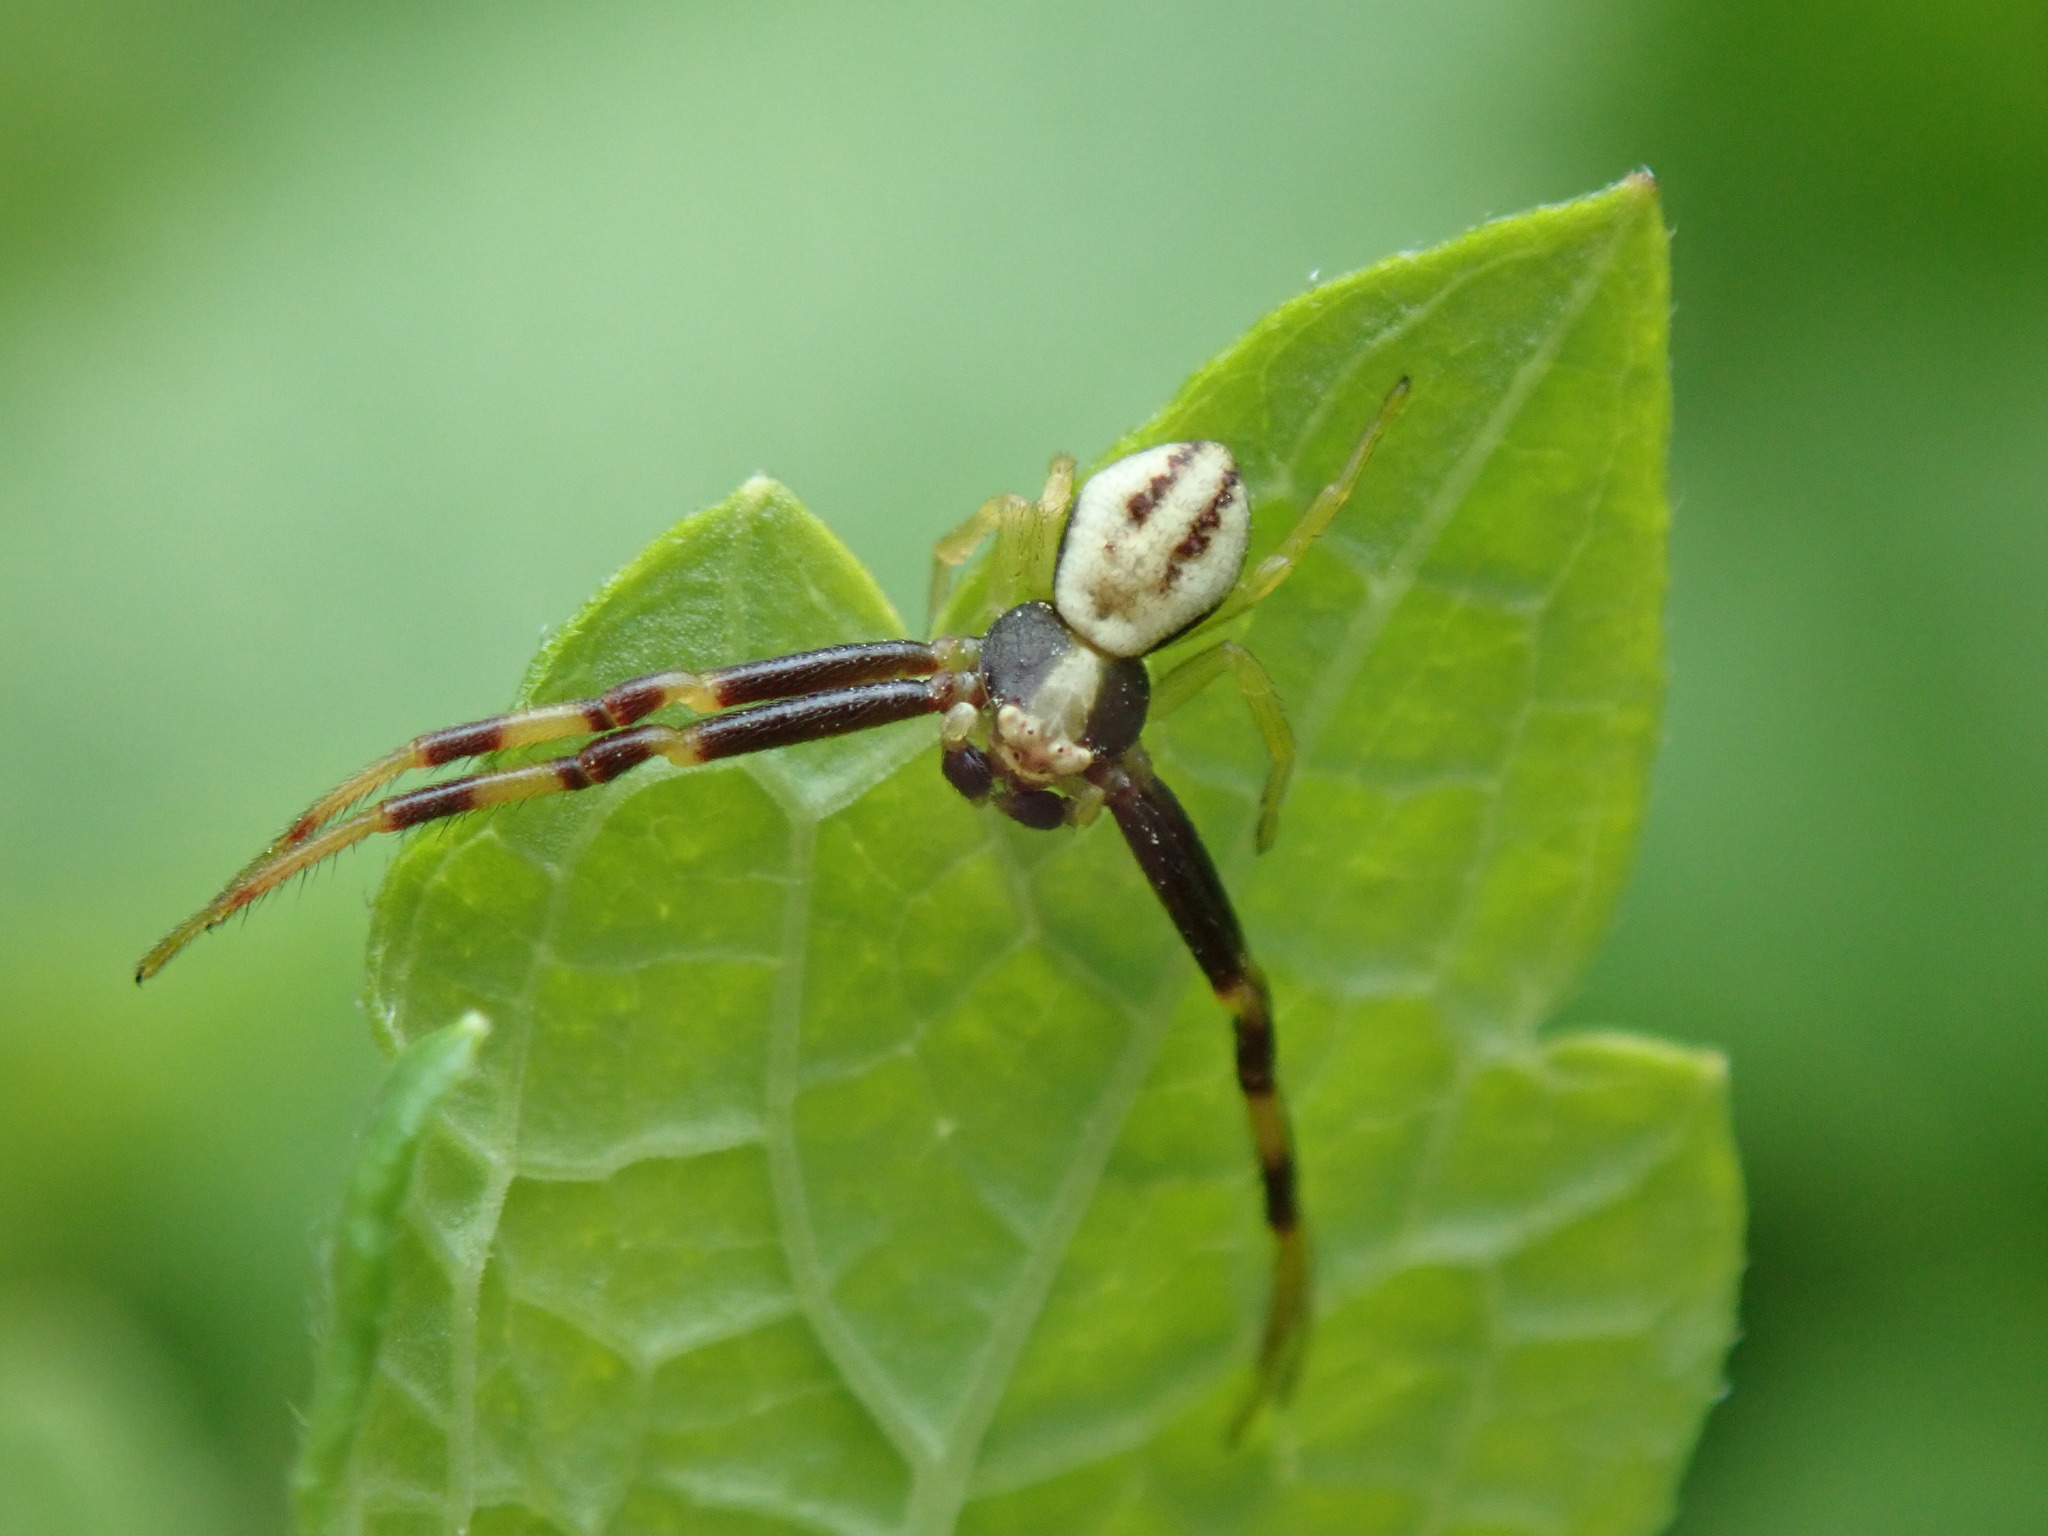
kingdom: Animalia
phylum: Arthropoda
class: Arachnida
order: Araneae
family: Thomisidae
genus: Misumena
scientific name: Misumena vatia
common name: Goldenrod crab spider
